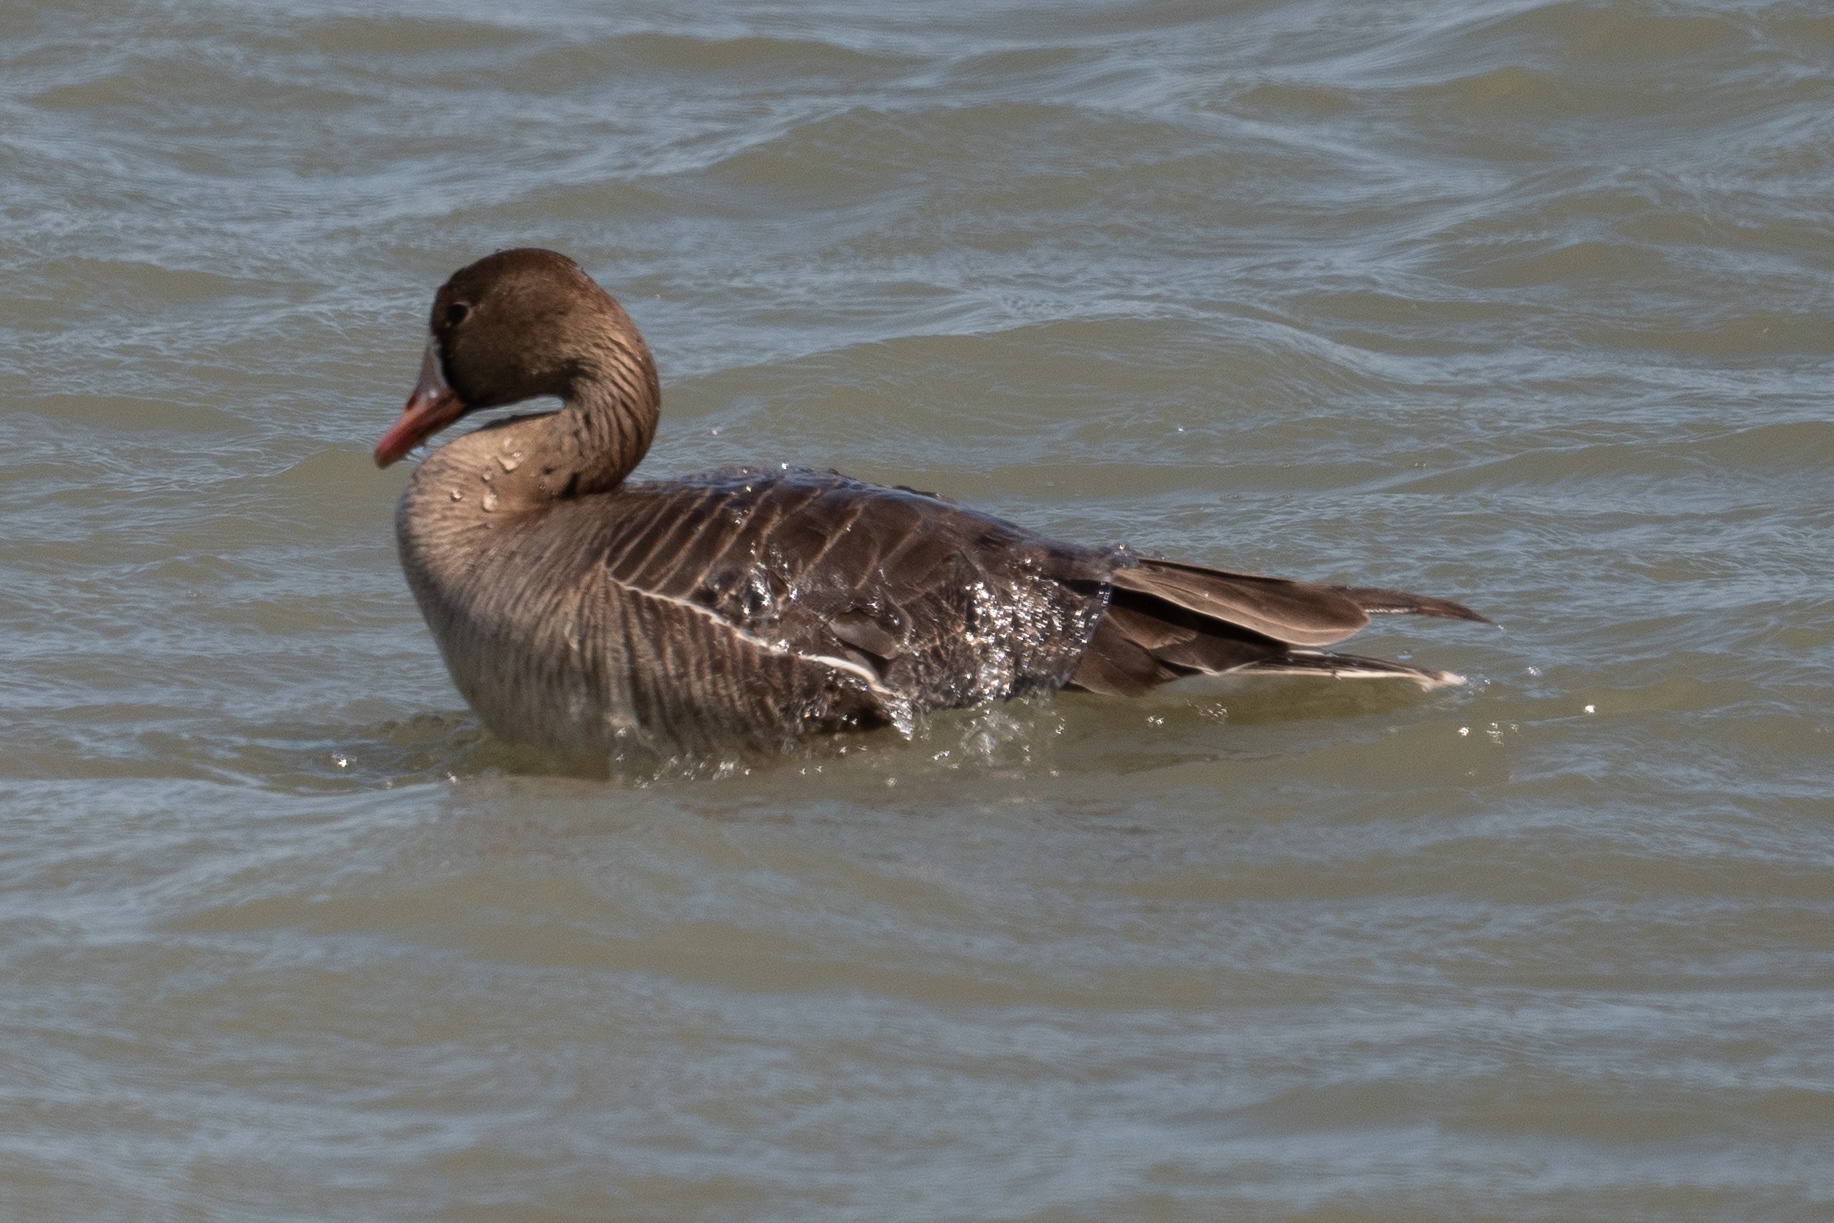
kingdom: Animalia
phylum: Chordata
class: Aves
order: Anseriformes
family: Anatidae
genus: Anser
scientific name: Anser albifrons
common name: Greater white-fronted goose
